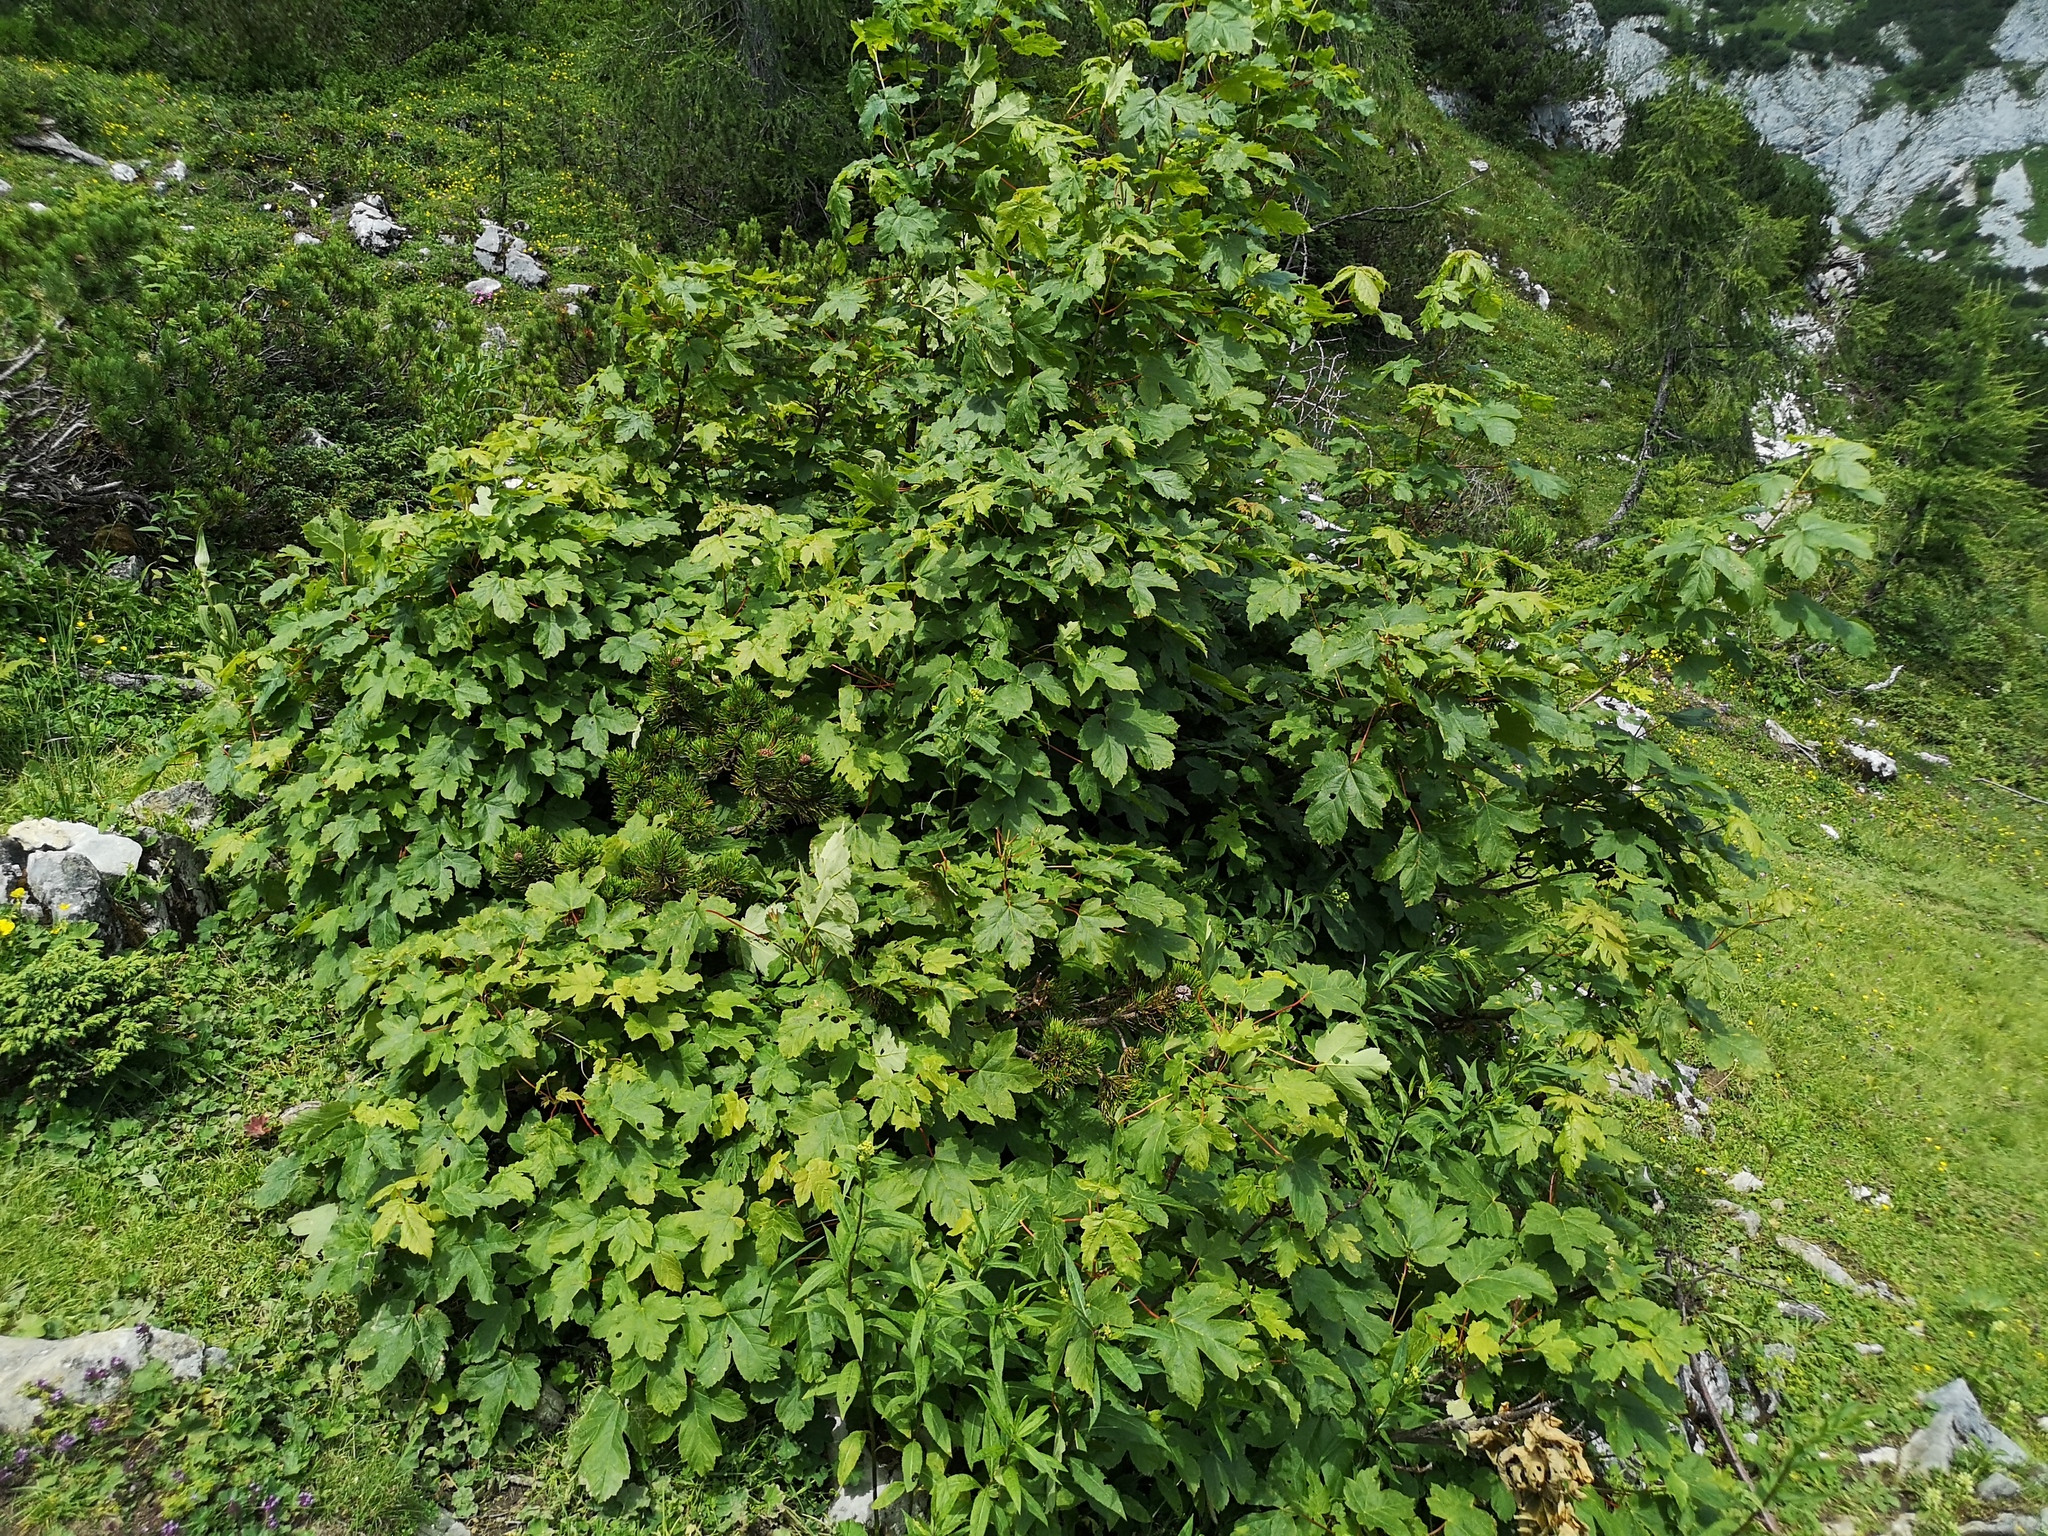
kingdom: Plantae
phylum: Tracheophyta
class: Magnoliopsida
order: Sapindales
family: Sapindaceae
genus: Acer
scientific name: Acer pseudoplatanus
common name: Sycamore
